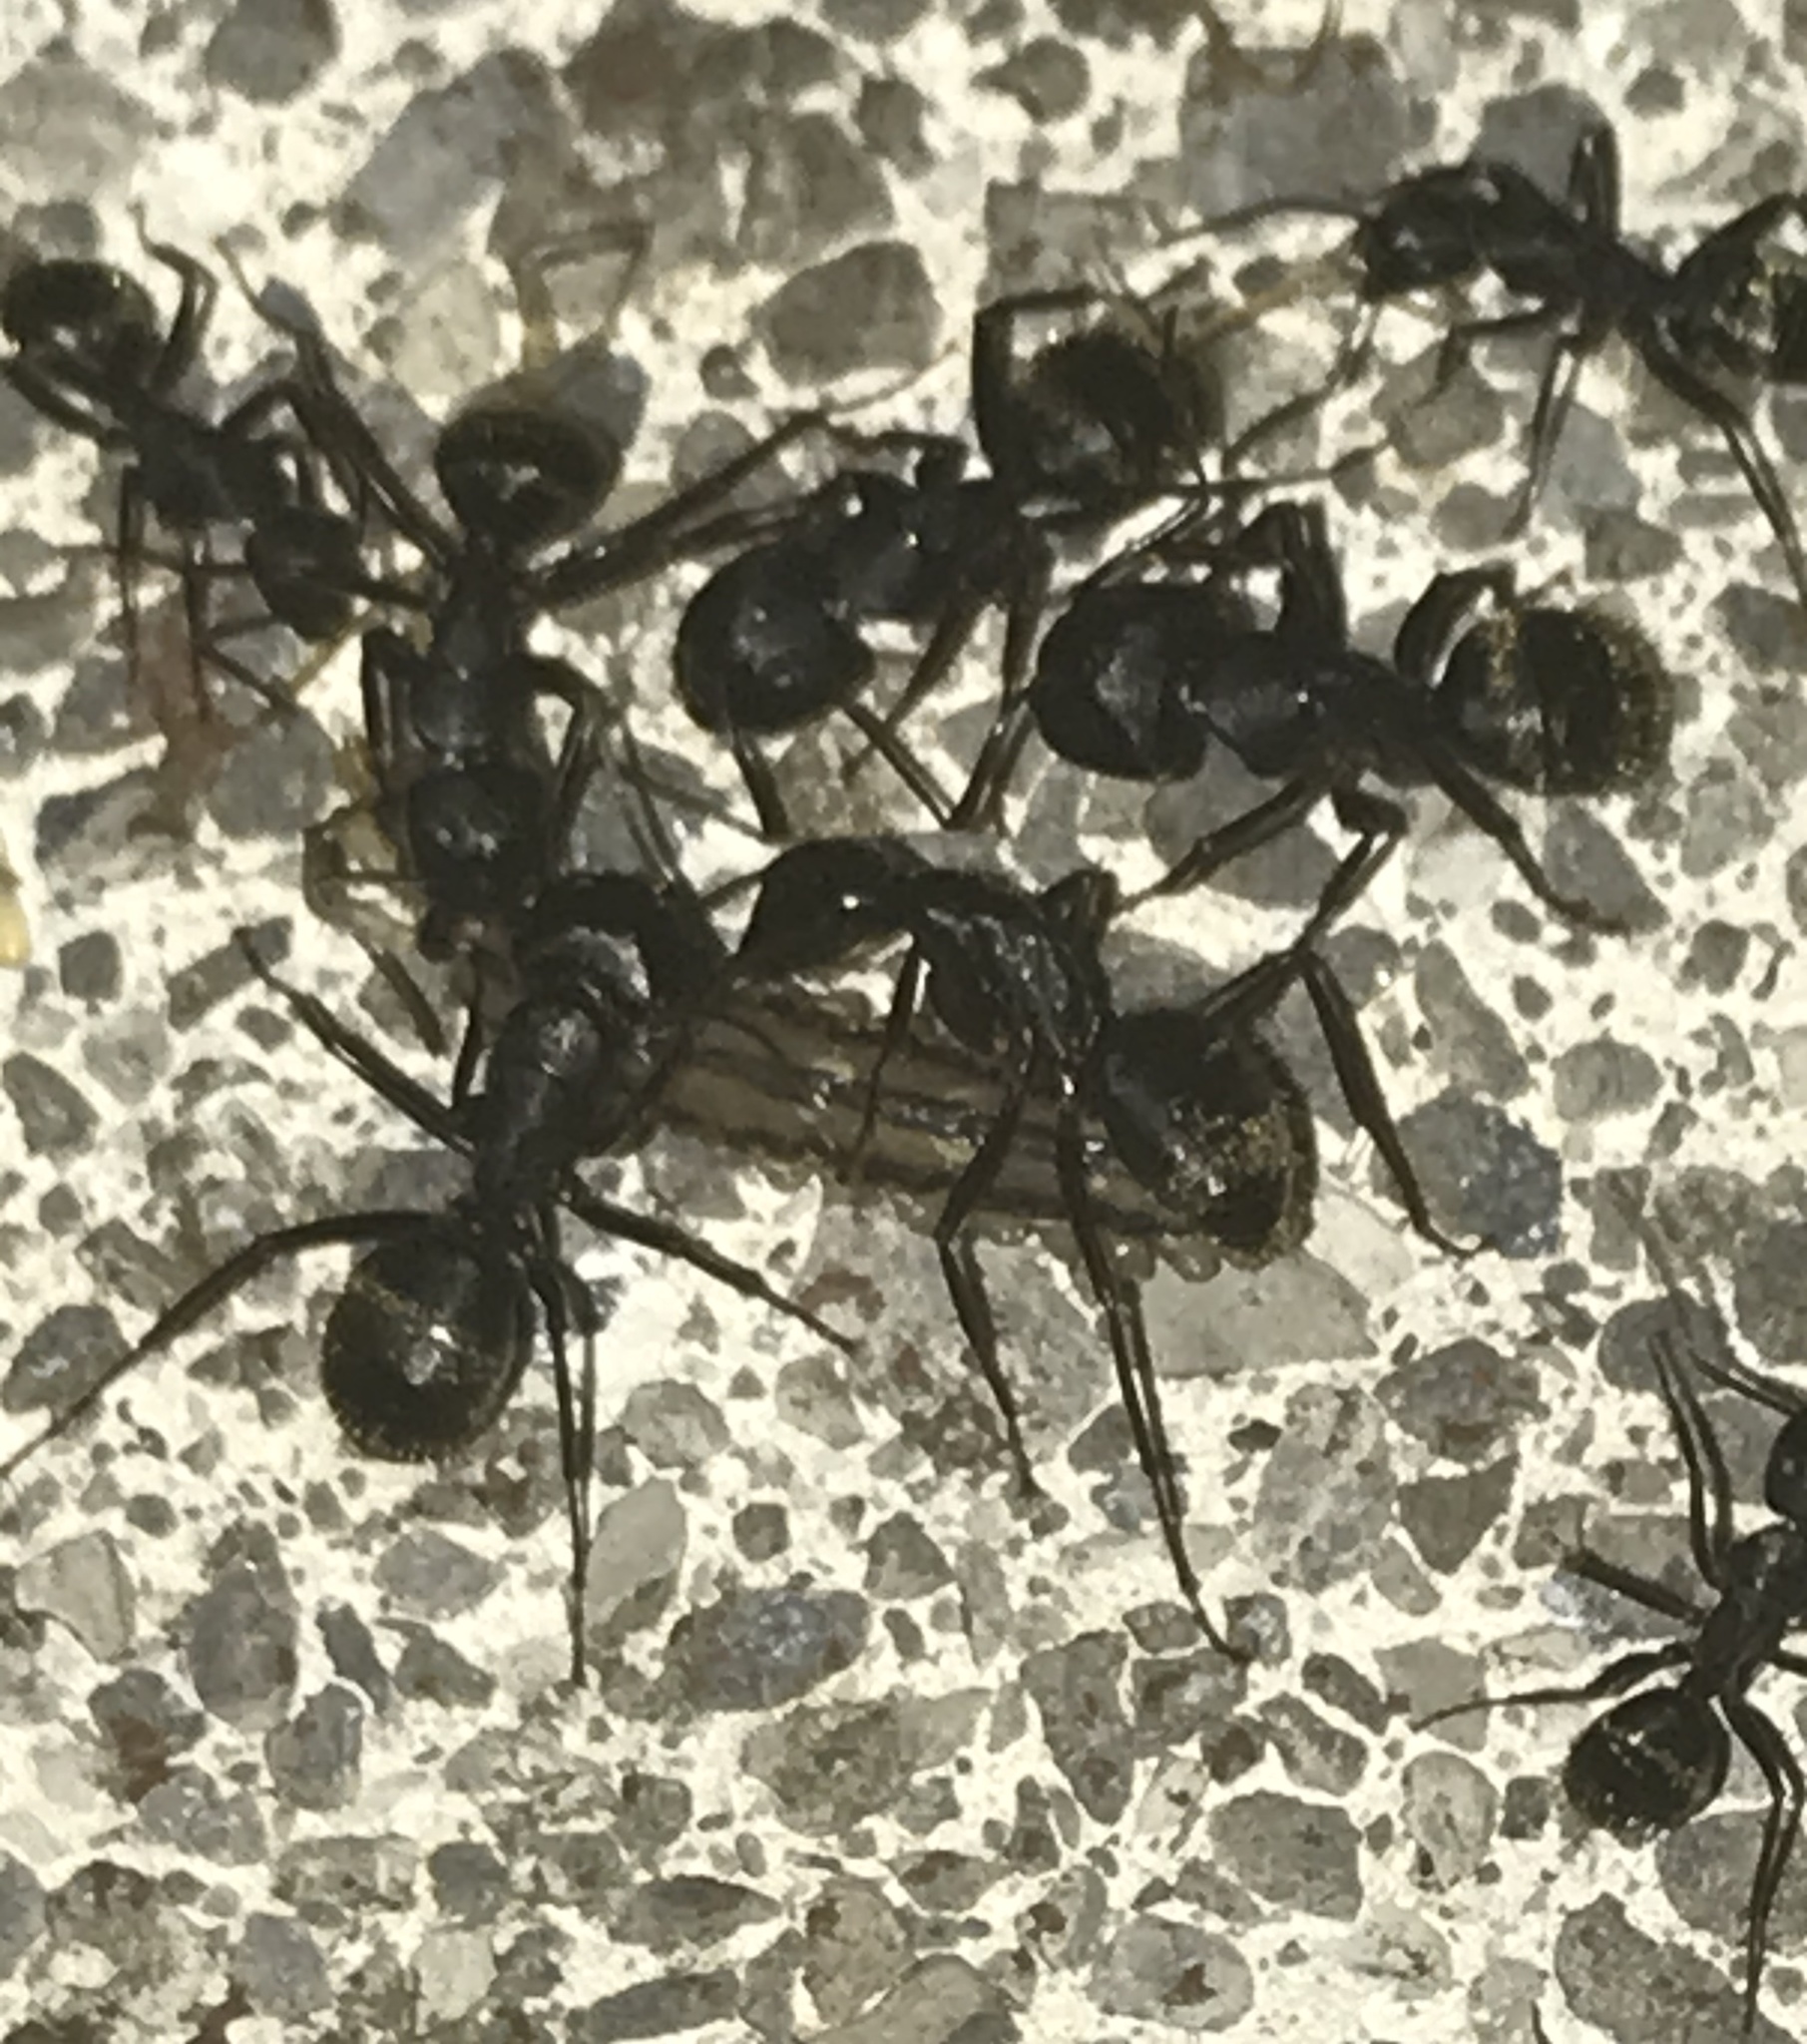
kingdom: Animalia
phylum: Arthropoda
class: Insecta
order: Hymenoptera
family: Formicidae
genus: Camponotus
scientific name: Camponotus pennsylvanicus
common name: Black carpenter ant
